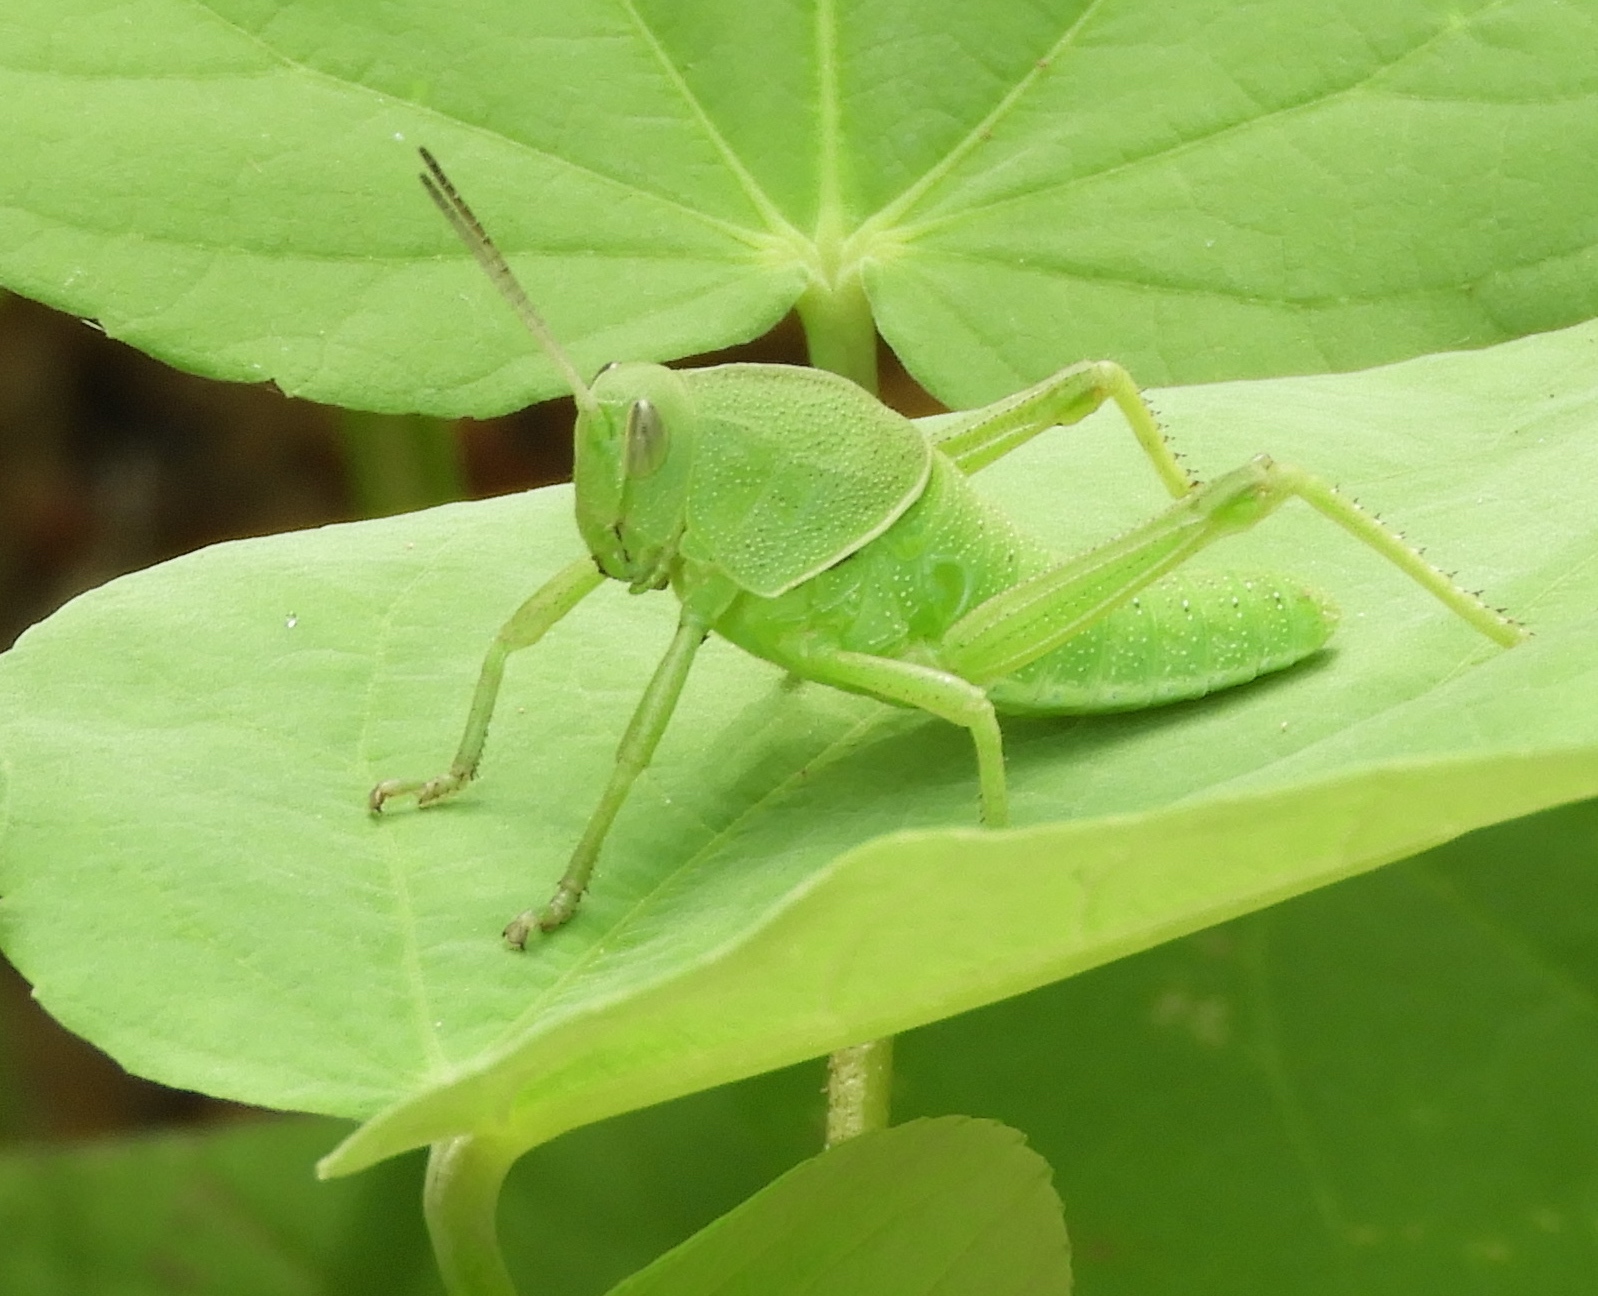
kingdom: Animalia
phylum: Arthropoda
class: Insecta
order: Orthoptera
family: Romaleidae
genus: Brachystola
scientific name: Brachystola
